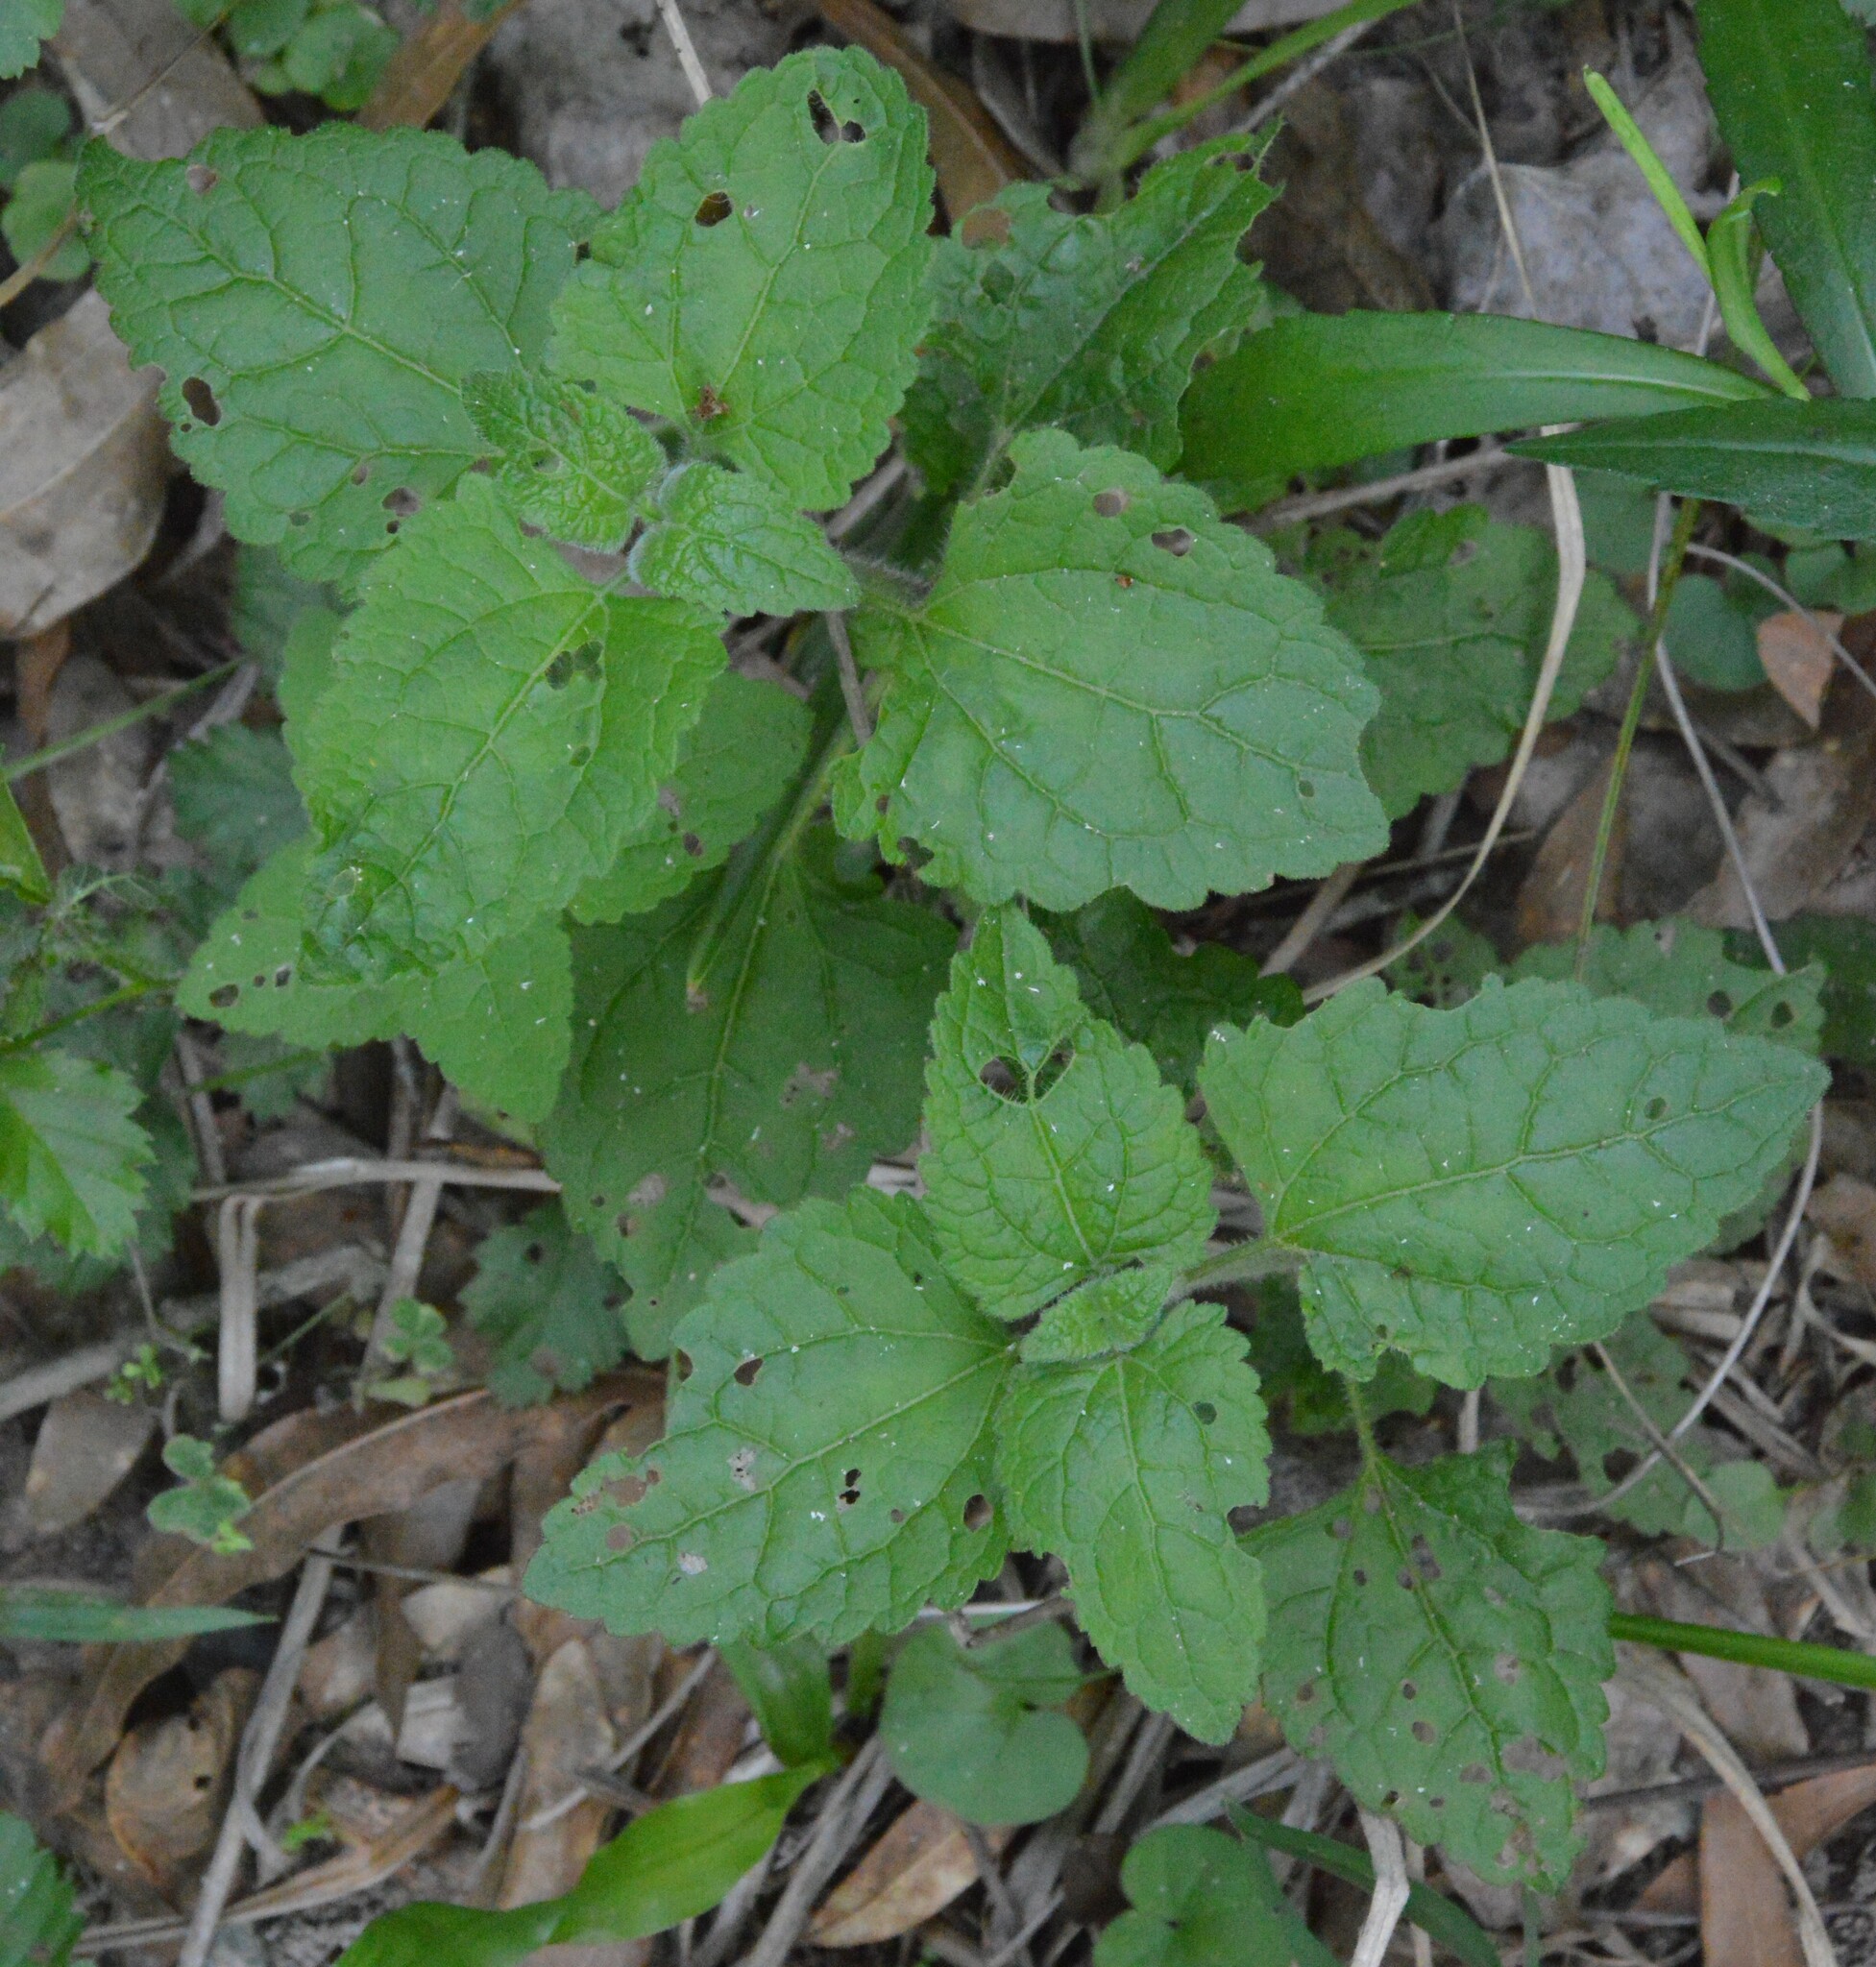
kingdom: Plantae
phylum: Tracheophyta
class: Magnoliopsida
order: Asterales
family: Asteraceae
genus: Conoclinium
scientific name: Conoclinium coelestinum
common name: Blue mistflower
